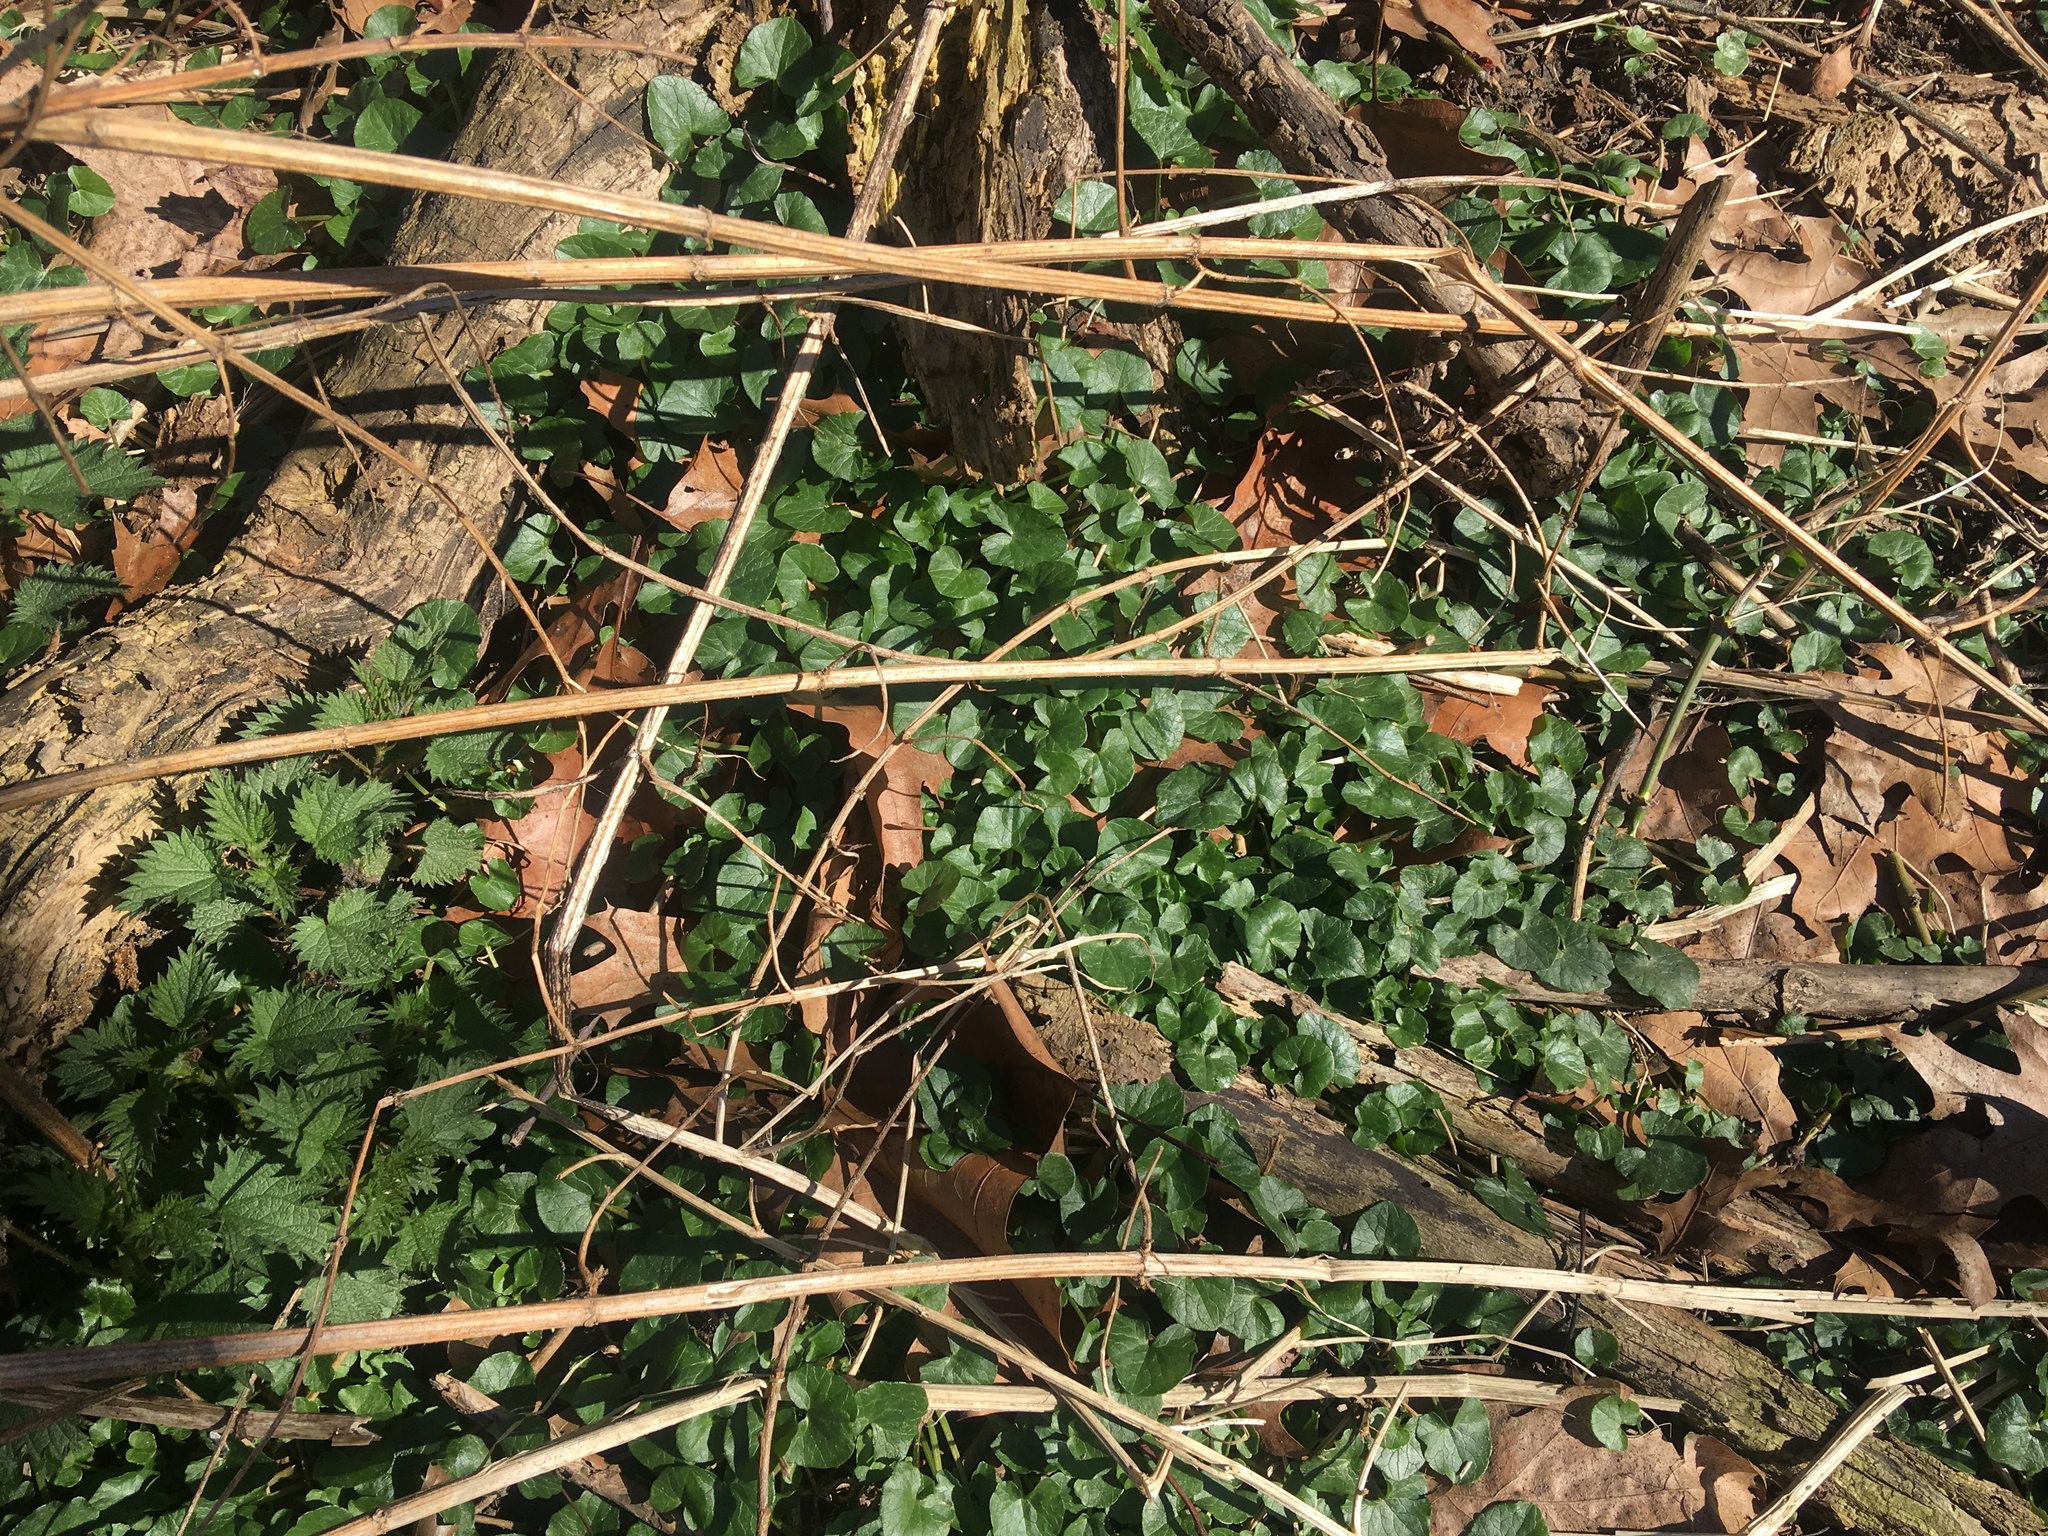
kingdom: Plantae
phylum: Tracheophyta
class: Magnoliopsida
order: Ranunculales
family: Ranunculaceae
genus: Ficaria
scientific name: Ficaria verna
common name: Lesser celandine
